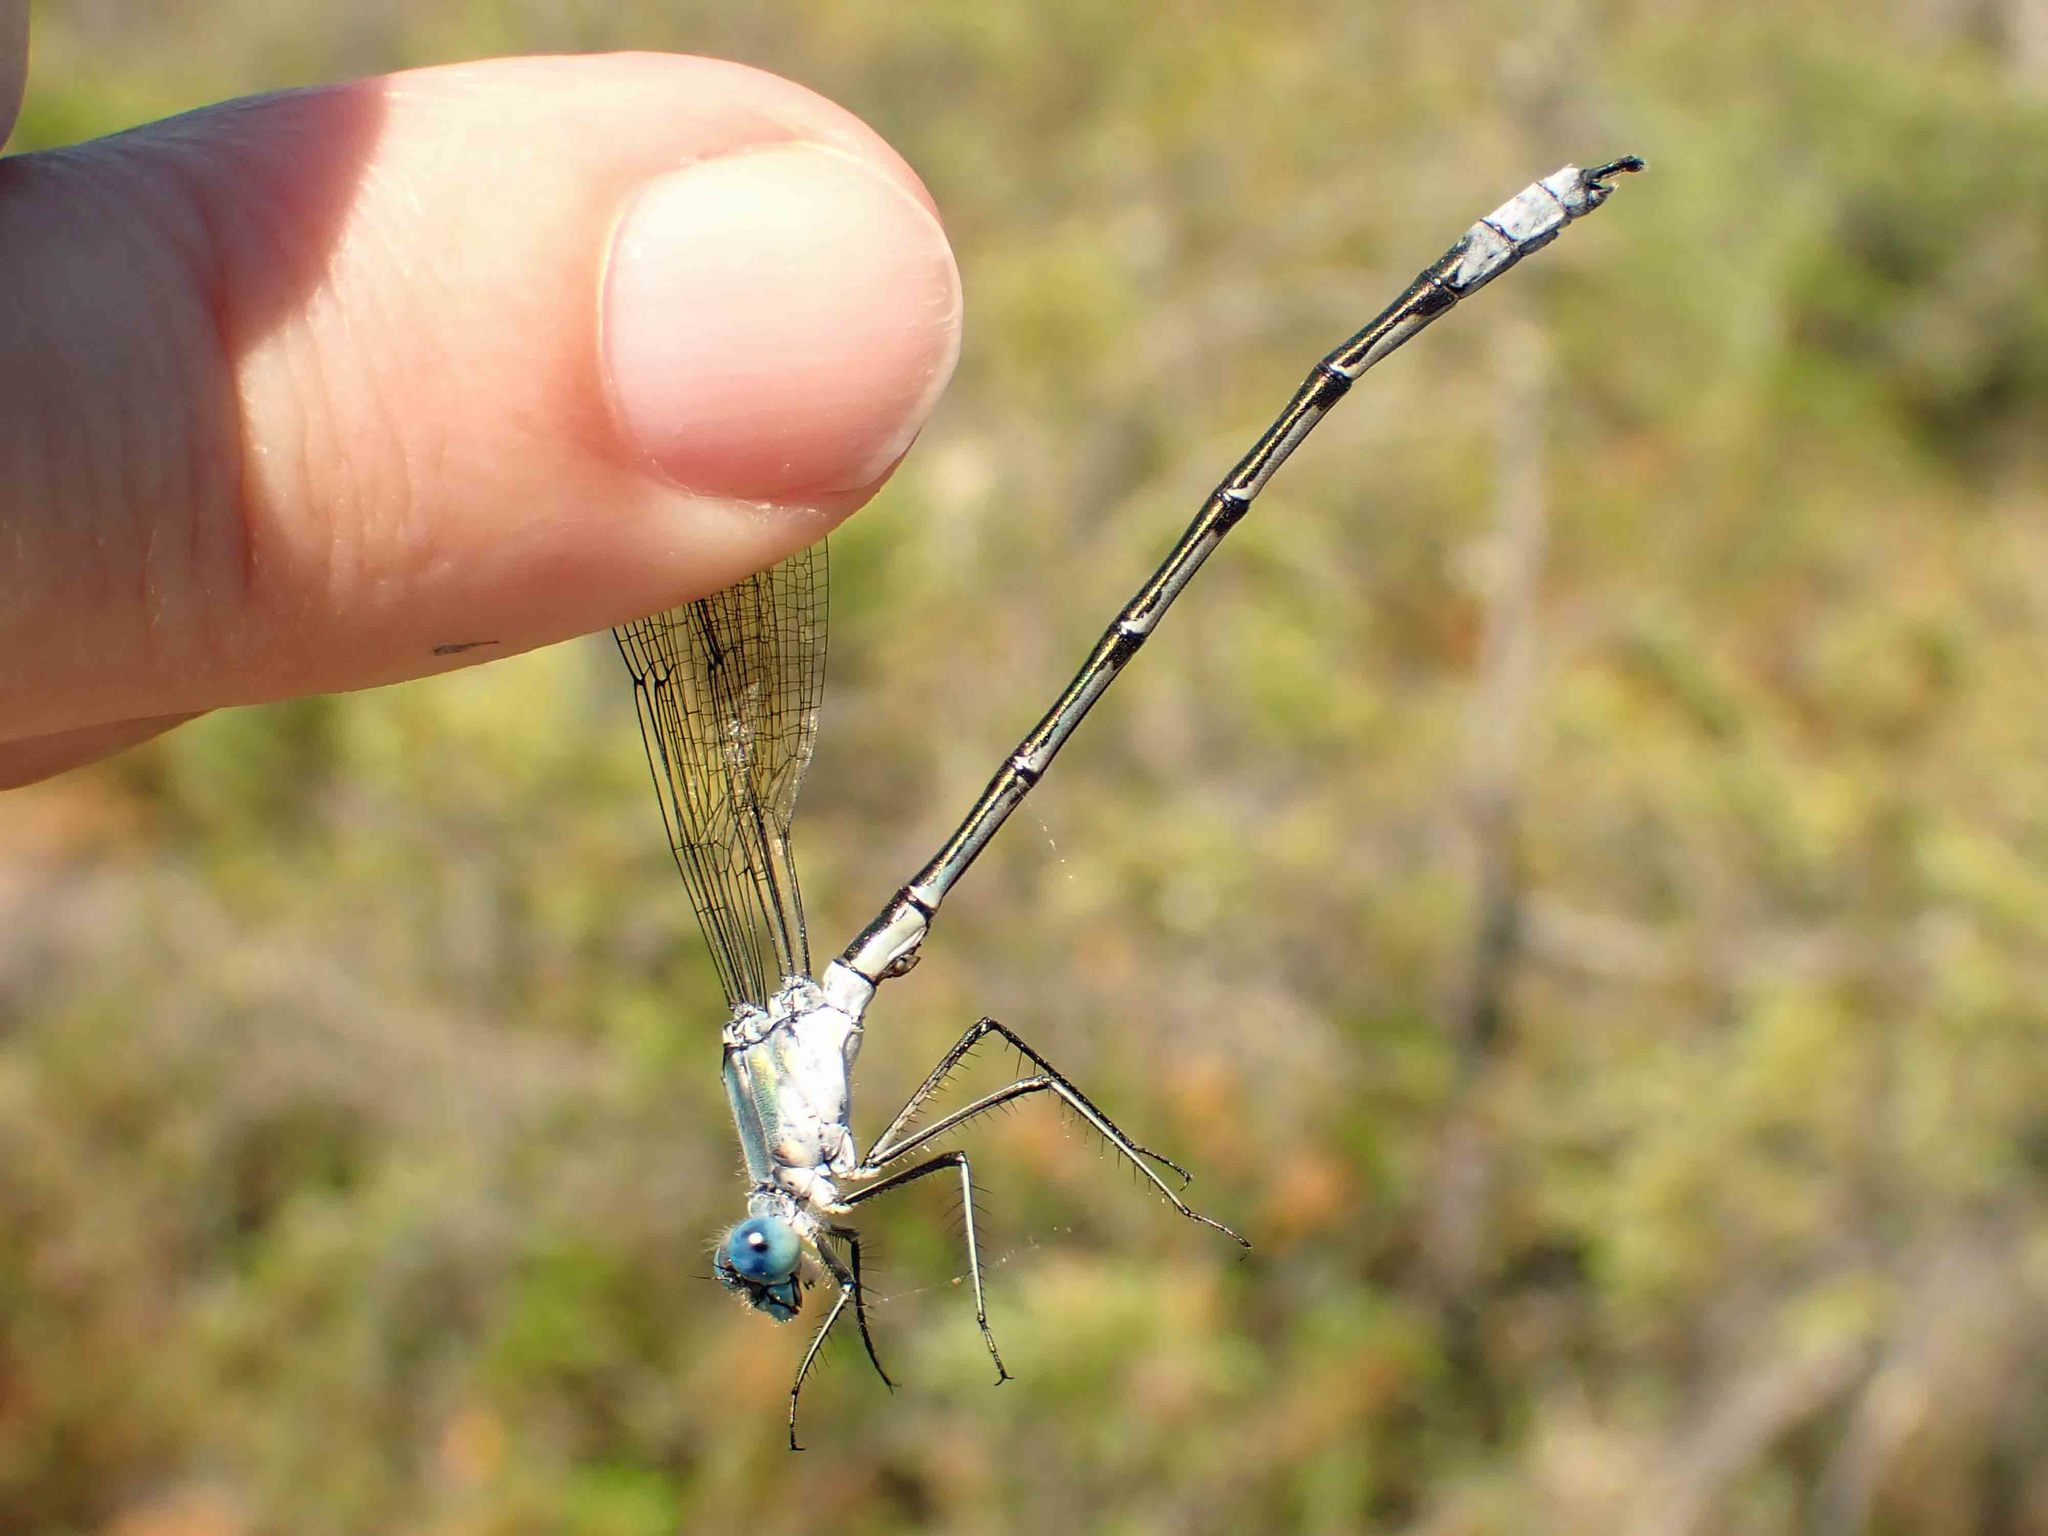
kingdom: Animalia
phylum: Arthropoda
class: Insecta
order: Odonata
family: Lestidae
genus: Lestes
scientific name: Lestes eurinus
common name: Amber-winged spreadwing
